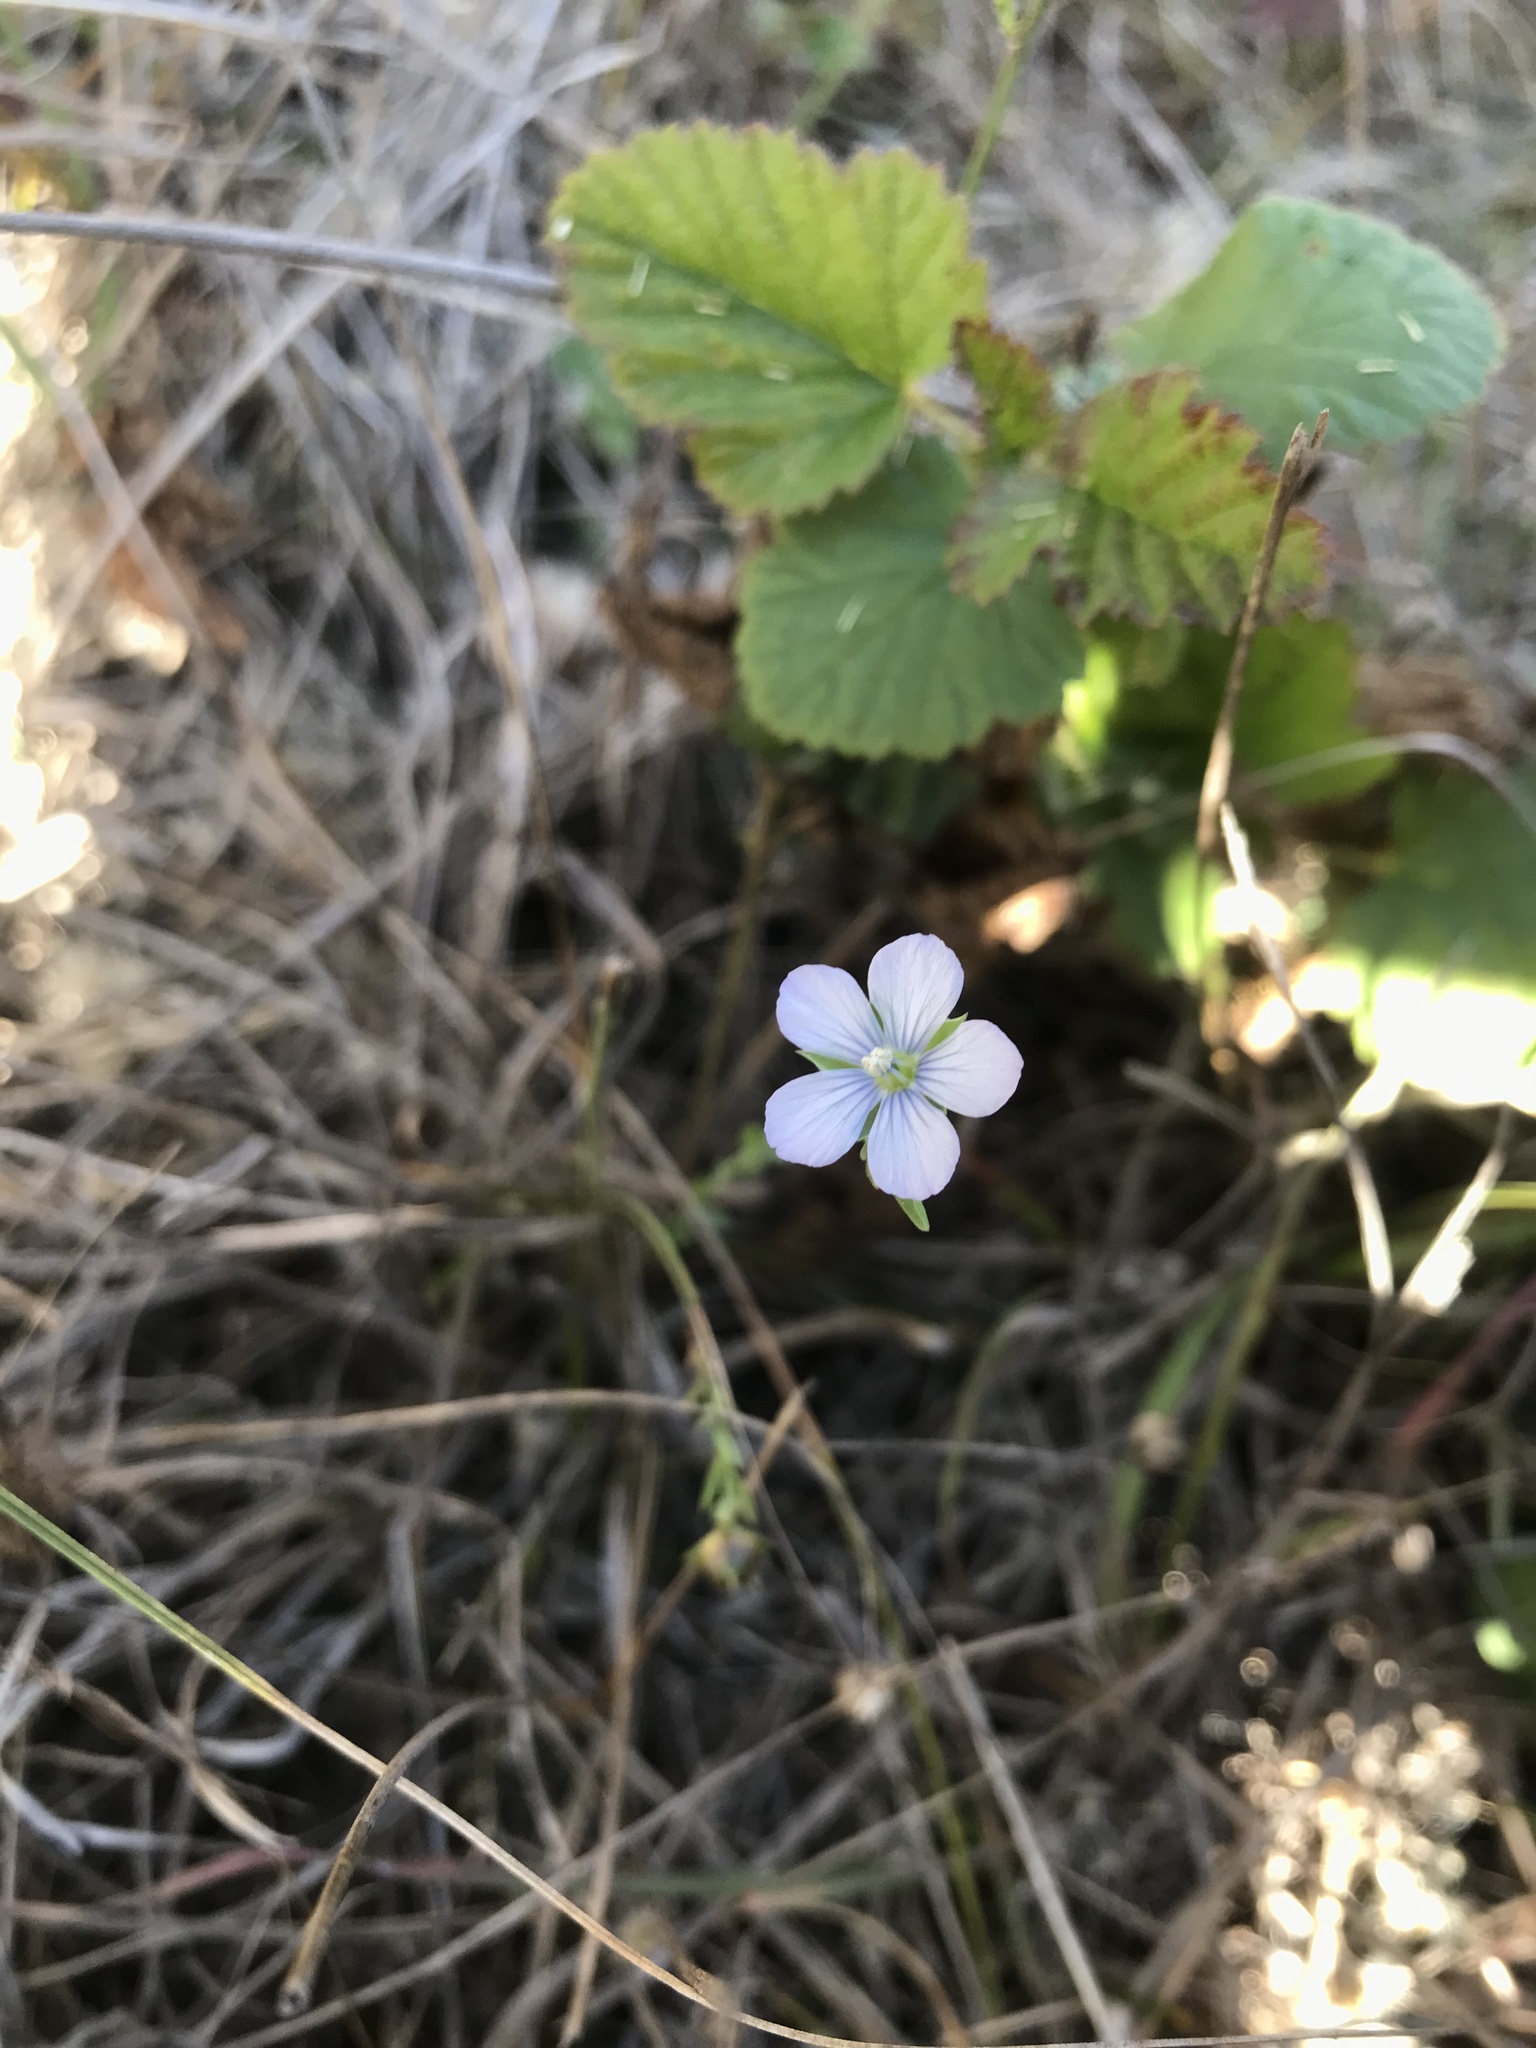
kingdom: Plantae
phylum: Tracheophyta
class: Magnoliopsida
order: Malpighiales
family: Linaceae
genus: Linum
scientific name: Linum bienne
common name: Pale flax
